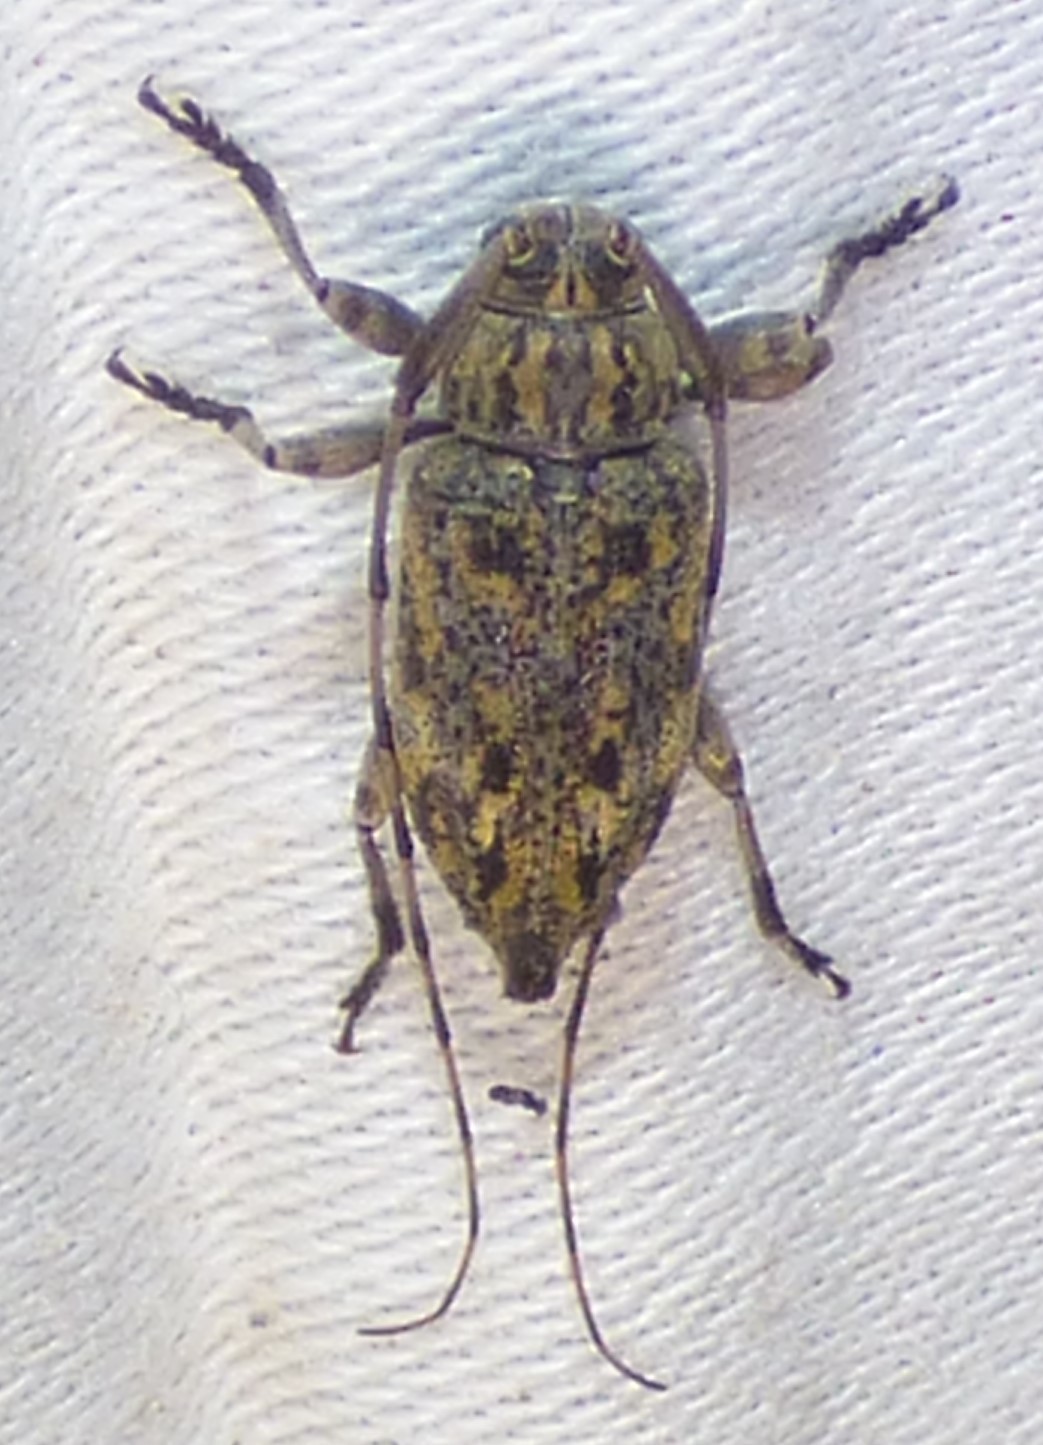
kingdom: Animalia
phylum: Arthropoda
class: Insecta
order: Coleoptera
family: Cerambycidae
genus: Atrypanius
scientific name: Atrypanius haldemani
